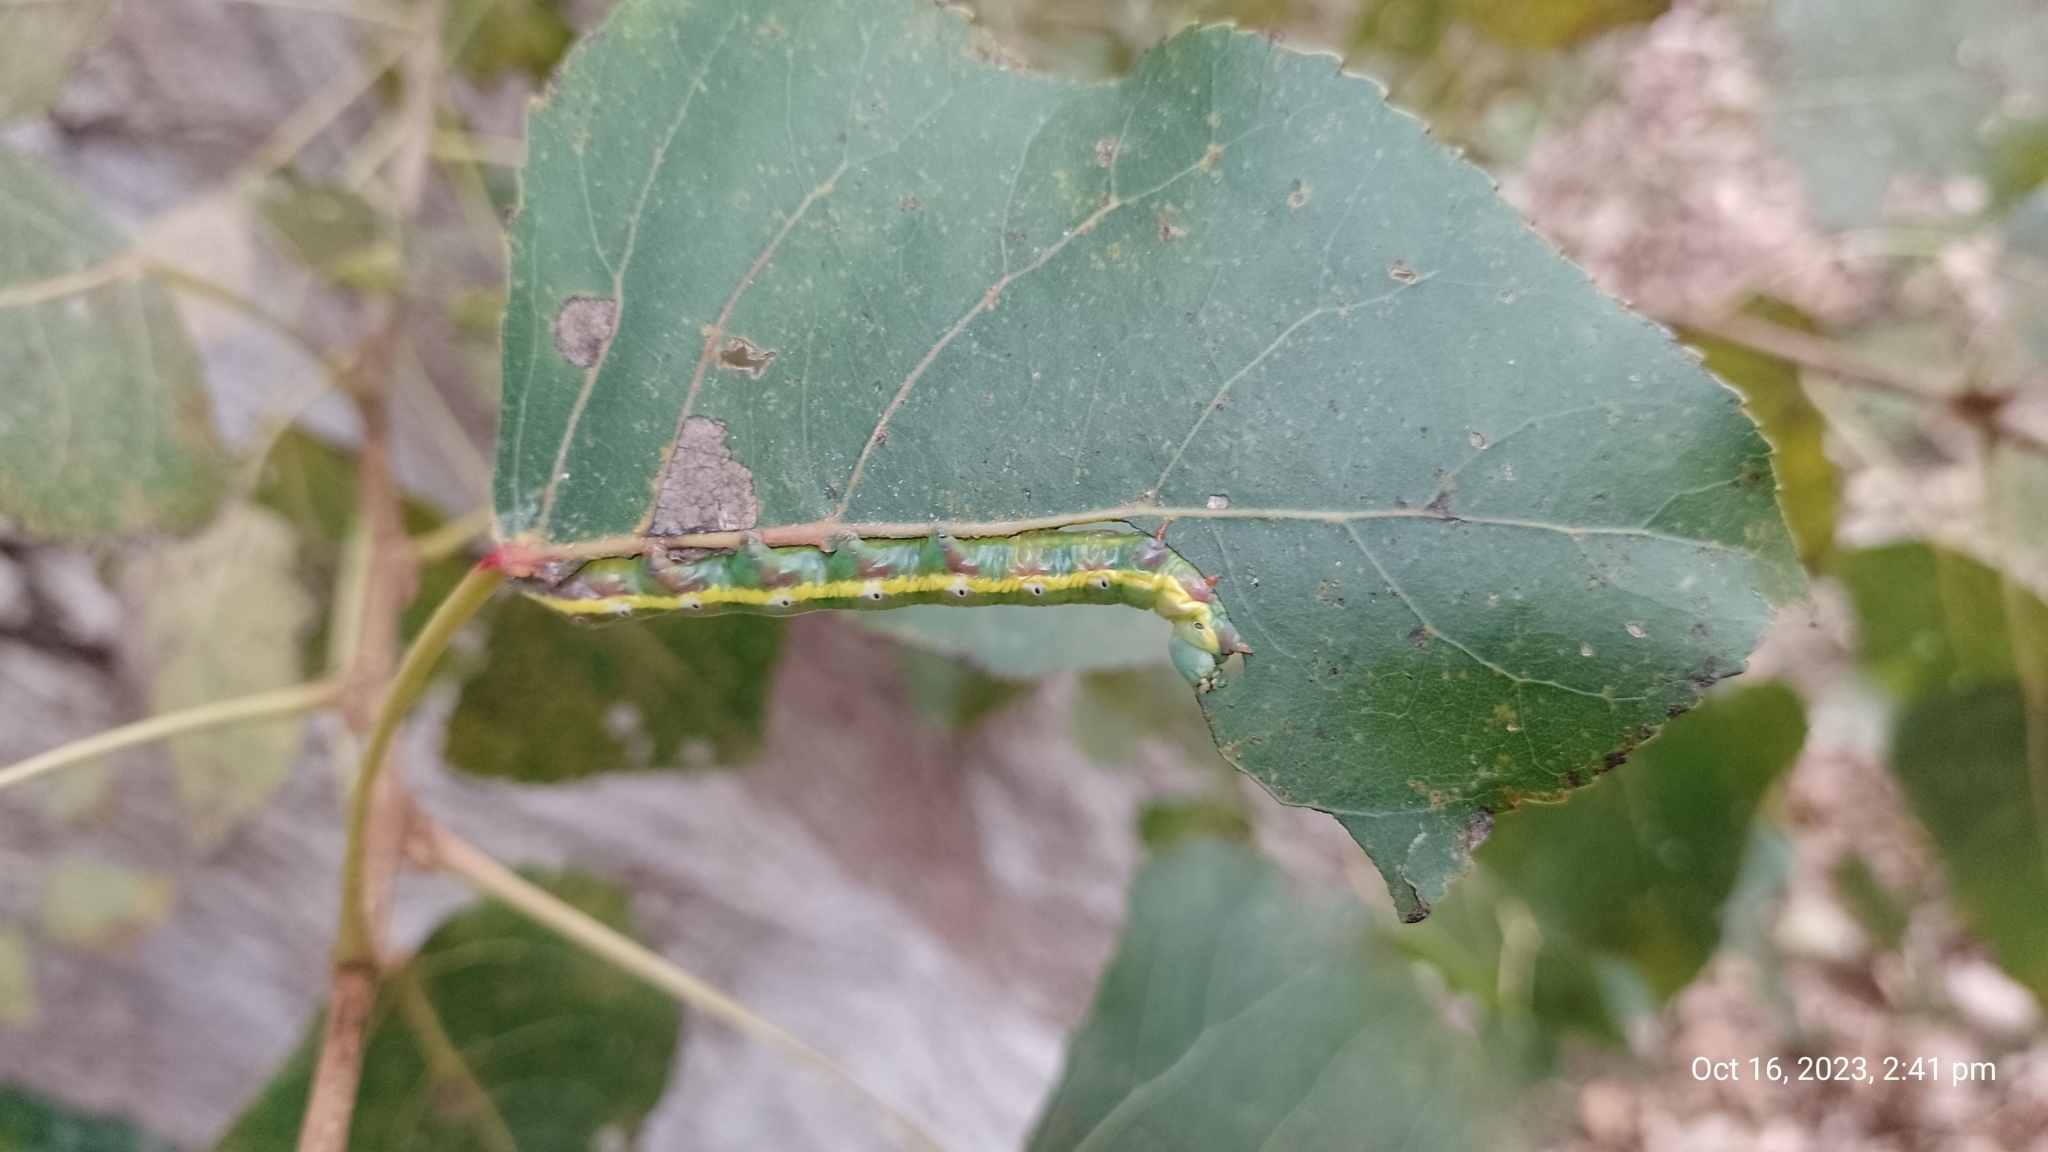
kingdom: Animalia
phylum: Arthropoda
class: Insecta
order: Lepidoptera
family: Notodontidae
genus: Pheosia
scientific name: Pheosia tremula
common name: Swallow prominent
